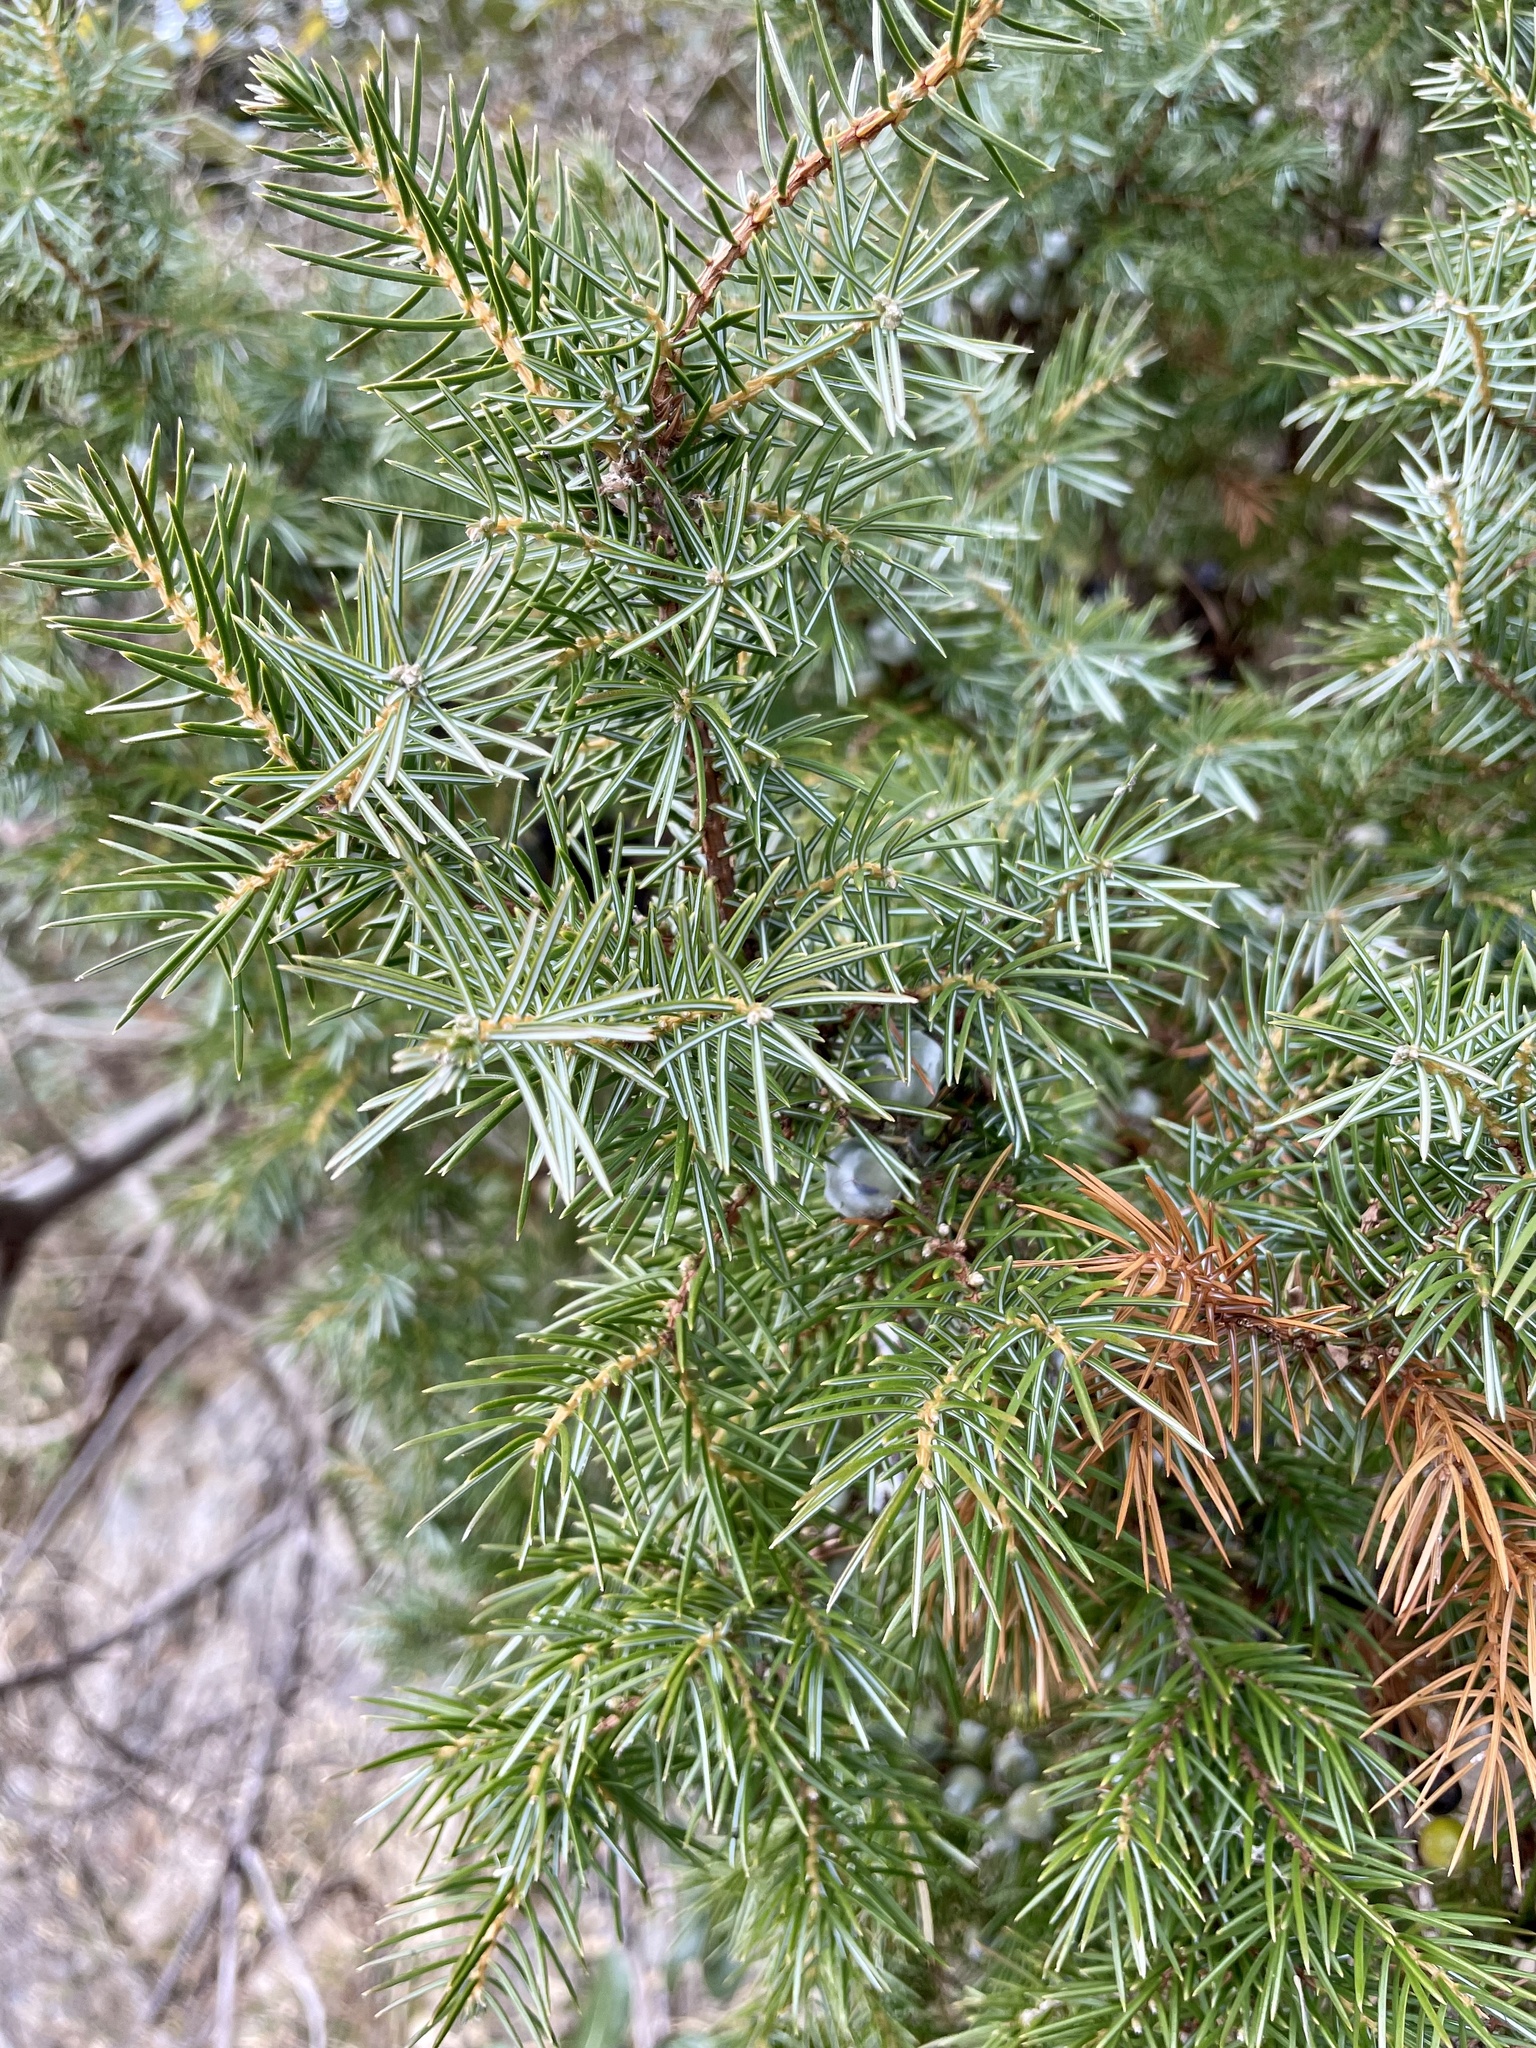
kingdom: Plantae
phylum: Tracheophyta
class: Pinopsida
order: Pinales
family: Cupressaceae
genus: Juniperus
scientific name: Juniperus rigida
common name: Needle juniper
